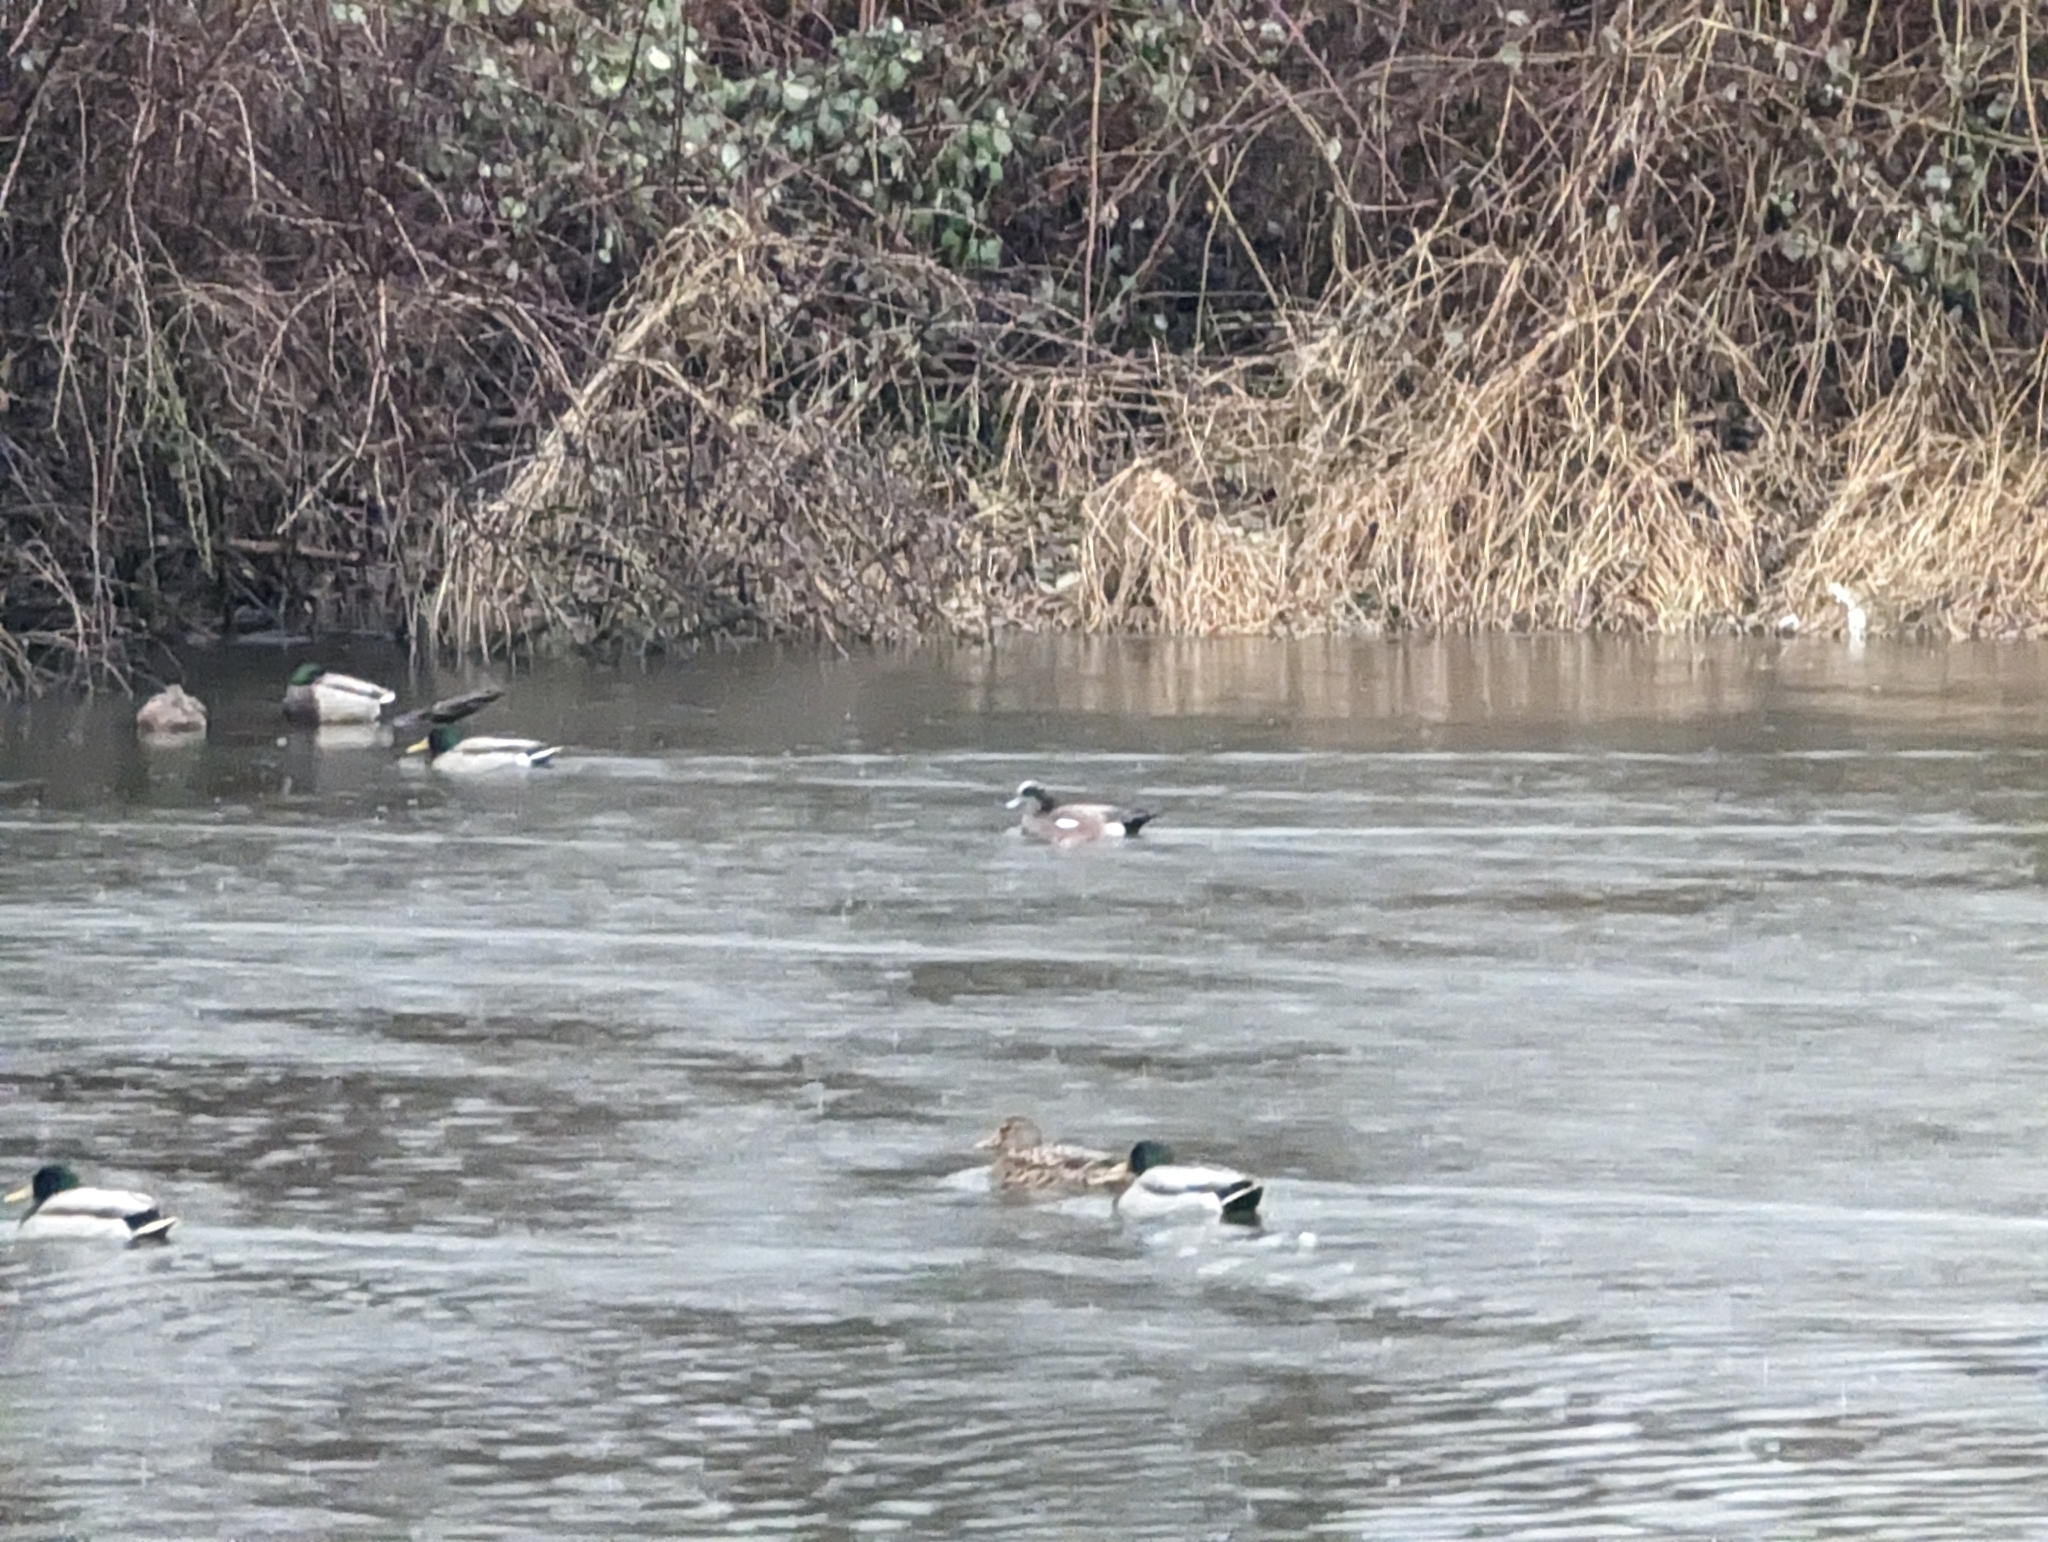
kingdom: Animalia
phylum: Chordata
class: Aves
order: Anseriformes
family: Anatidae
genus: Mareca
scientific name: Mareca americana
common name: American wigeon
